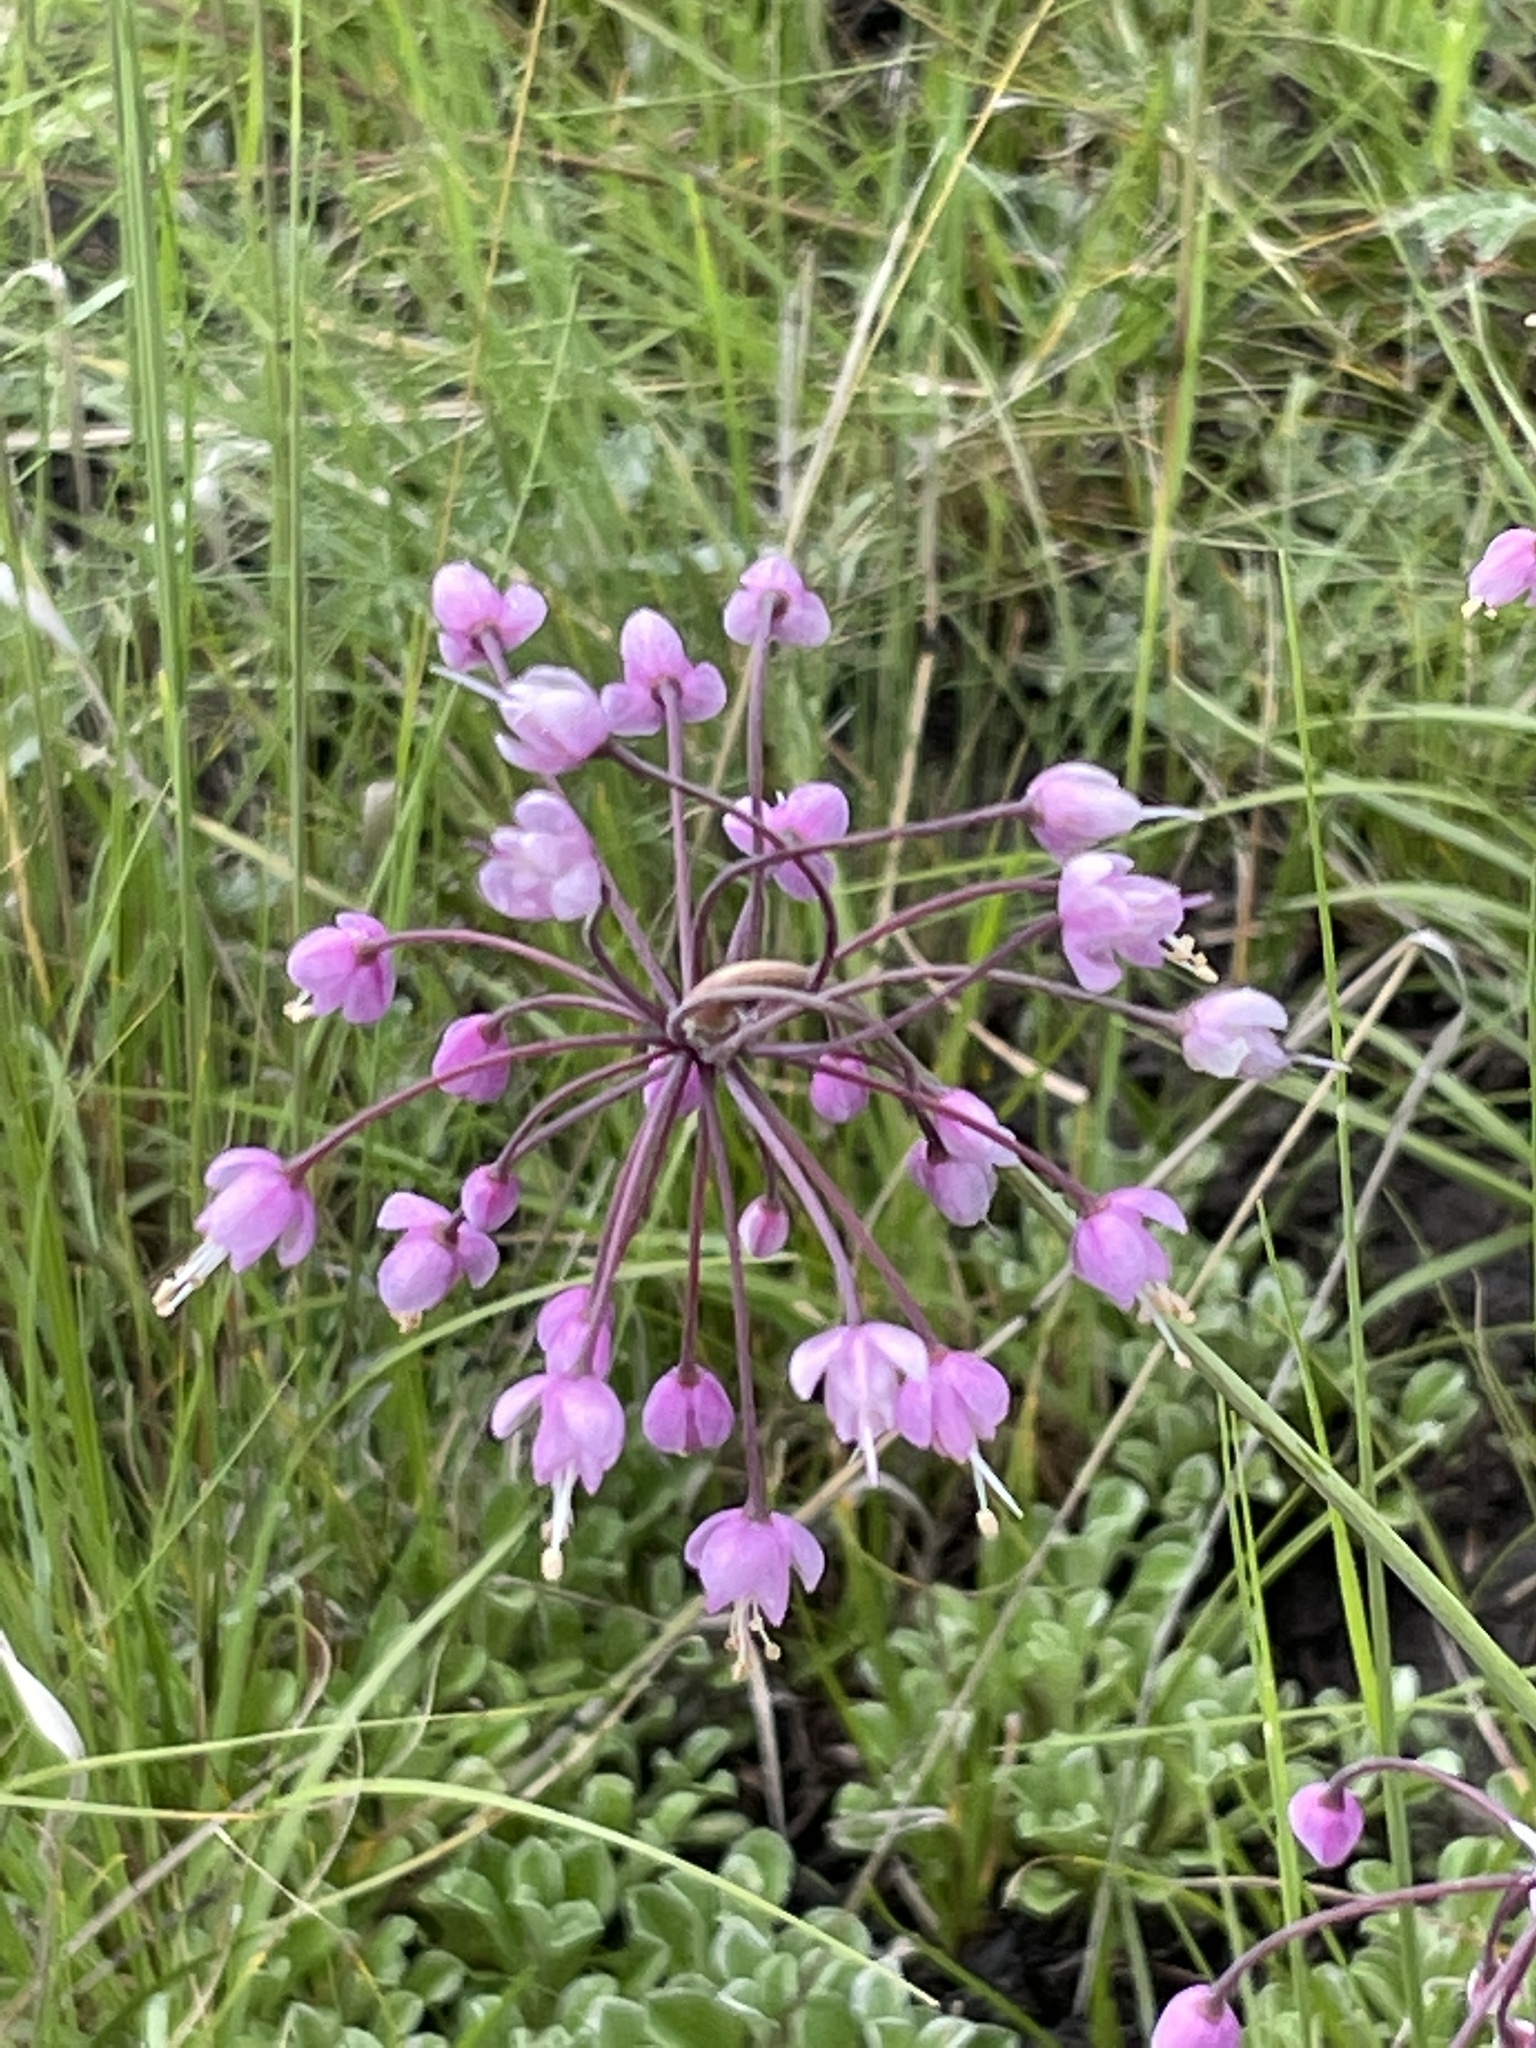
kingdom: Plantae
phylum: Tracheophyta
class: Liliopsida
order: Asparagales
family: Amaryllidaceae
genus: Allium
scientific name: Allium cernuum
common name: Nodding onion
